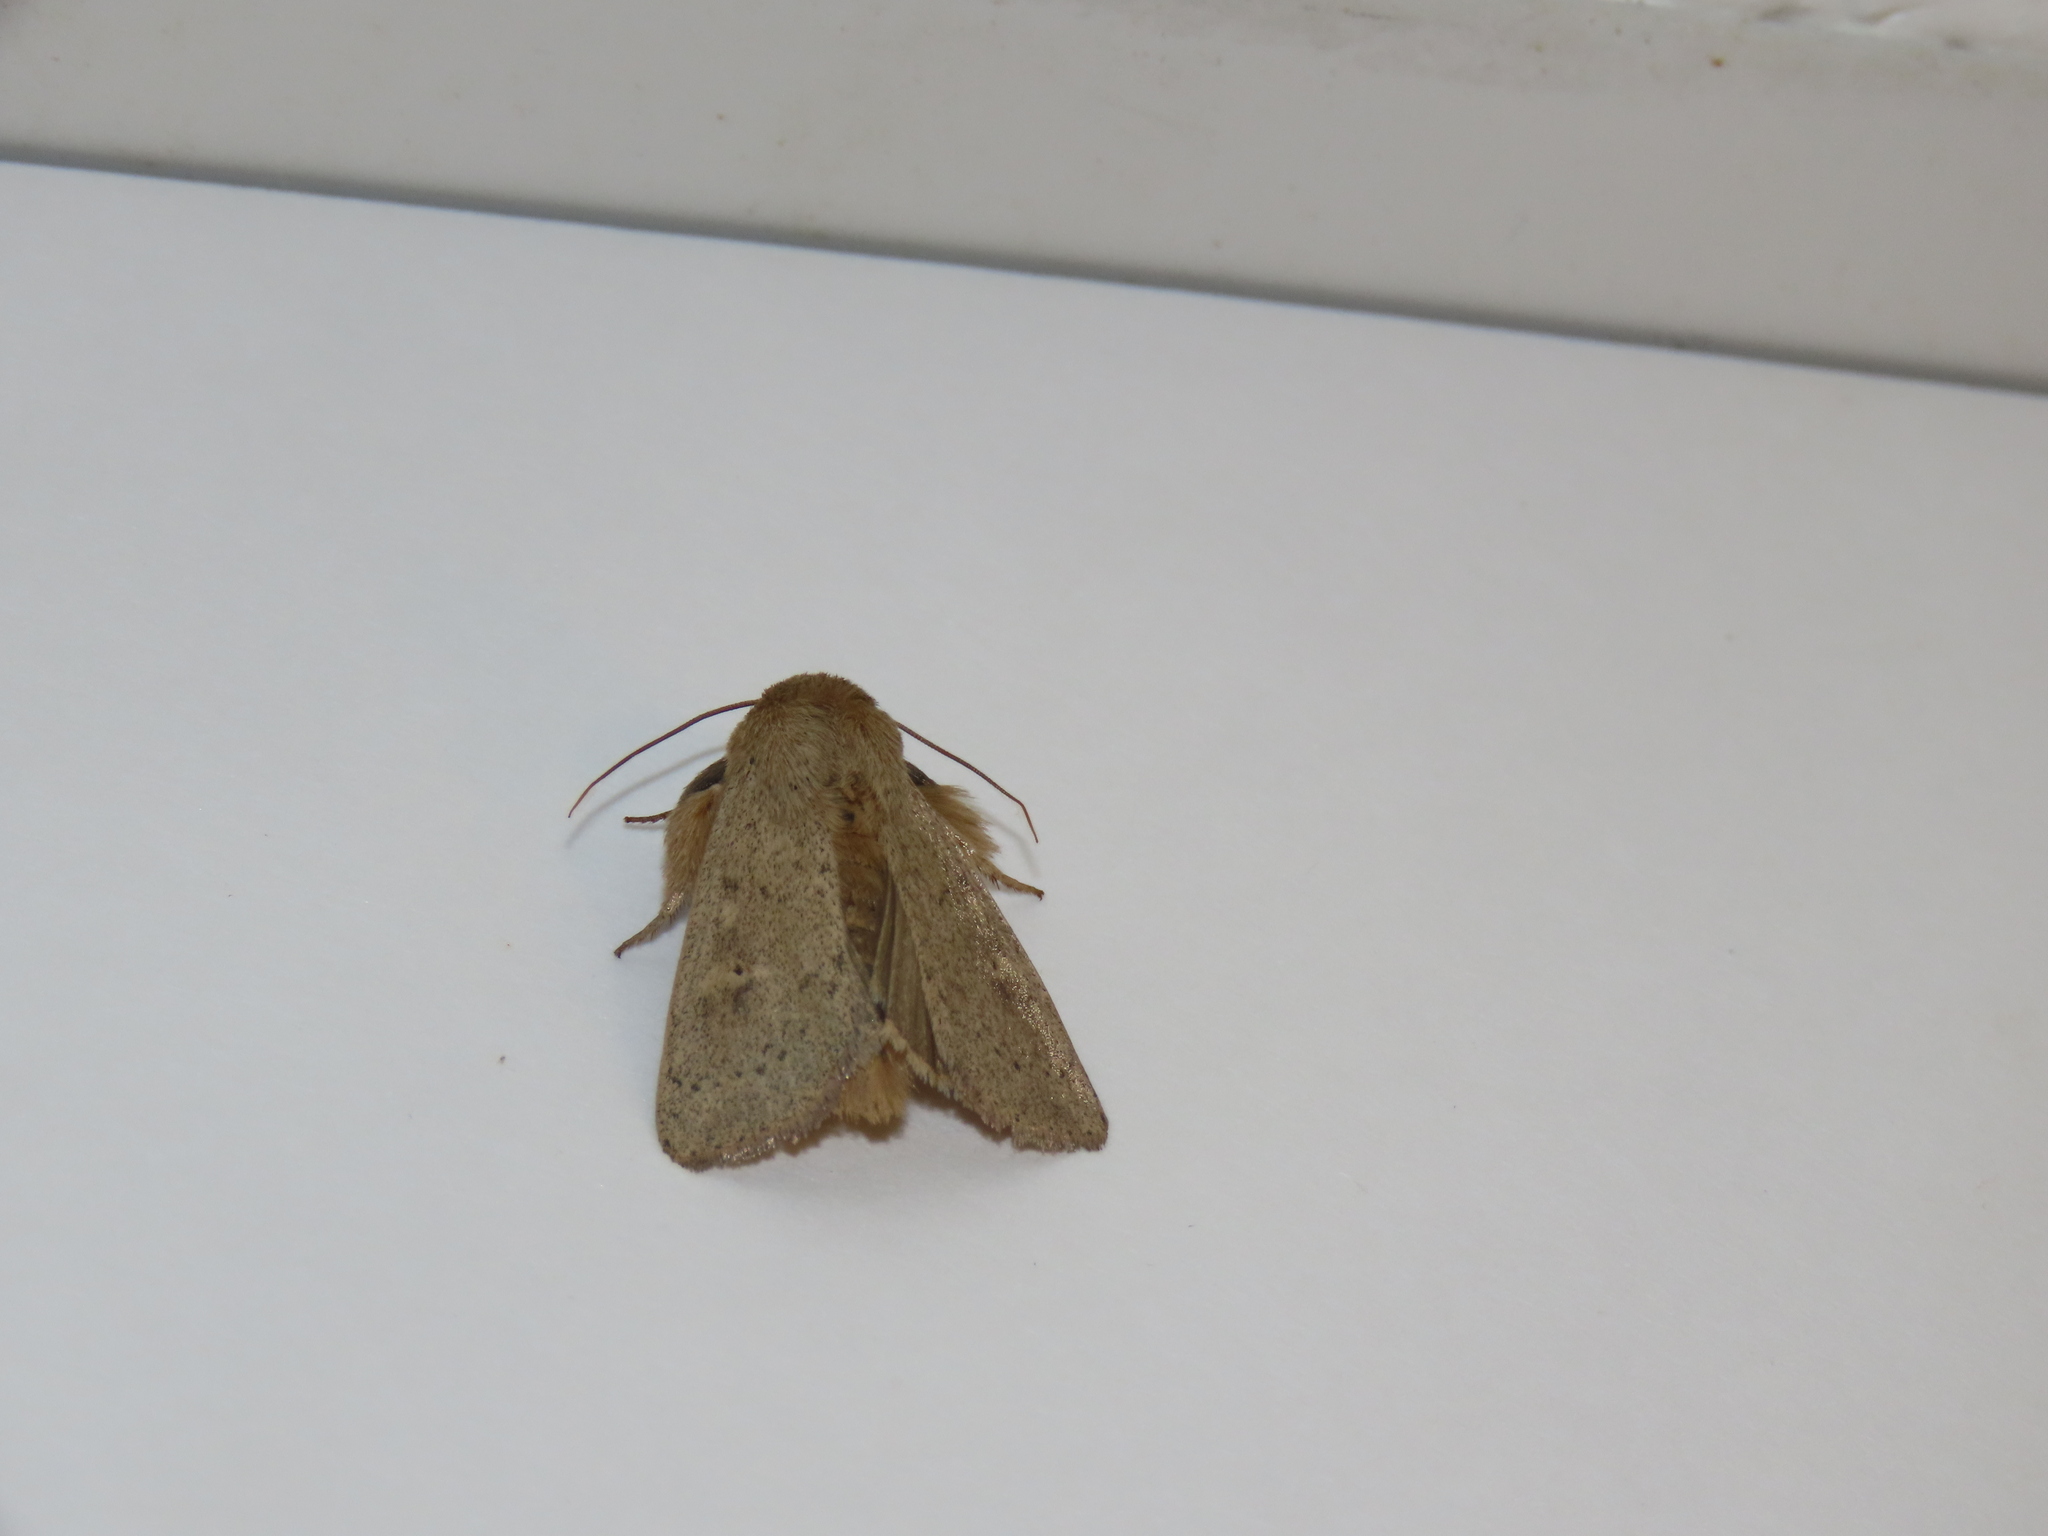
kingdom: Animalia
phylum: Arthropoda
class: Insecta
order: Lepidoptera
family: Noctuidae
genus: Leucania
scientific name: Leucania ursula
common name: Ursula wainscot
